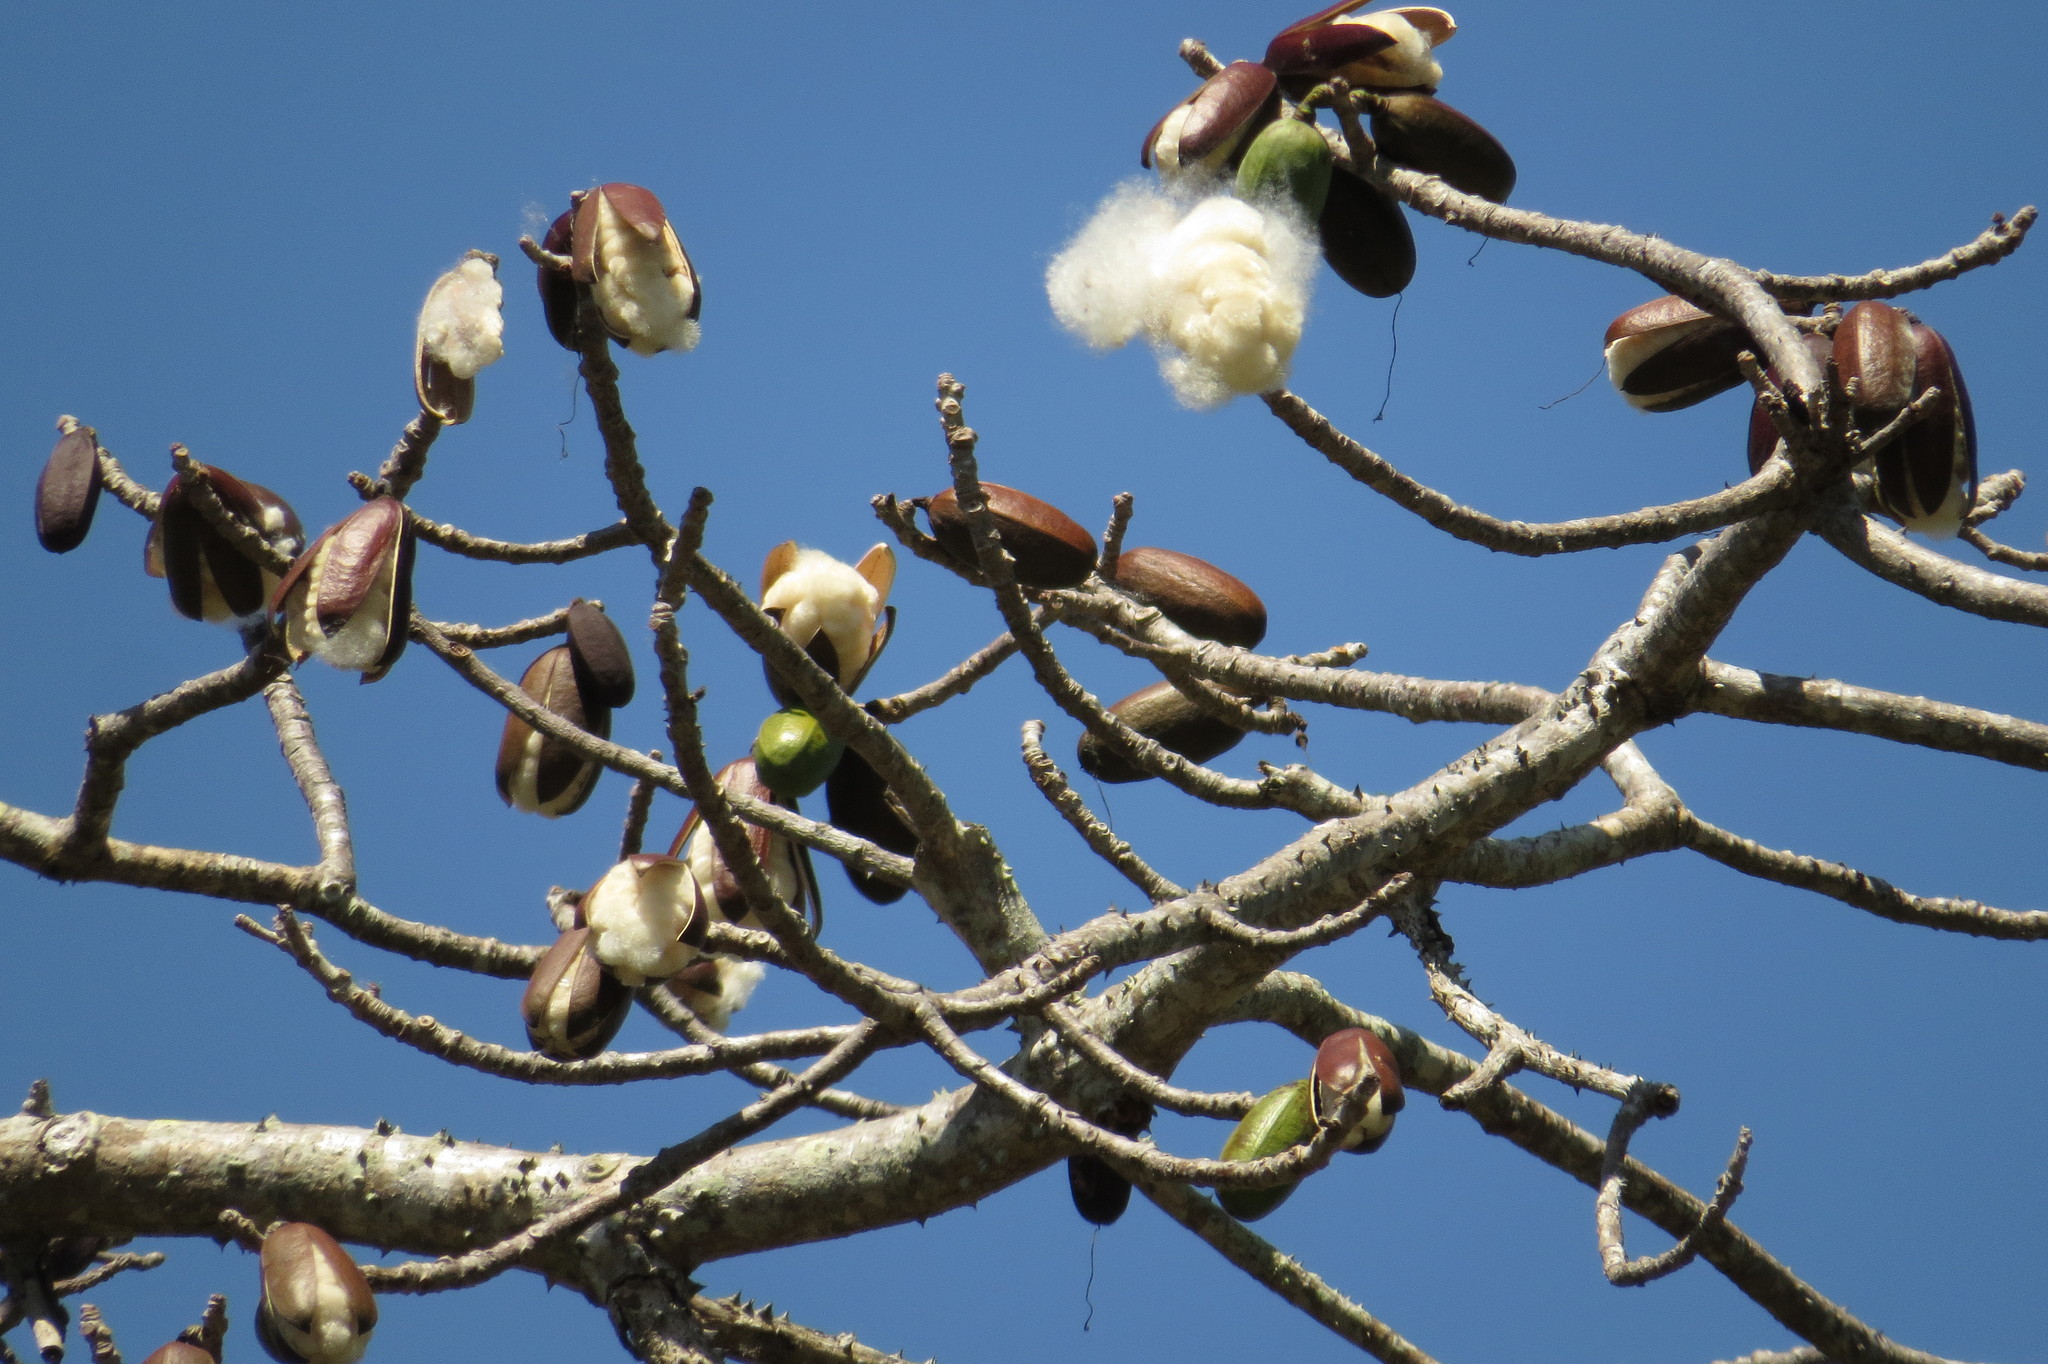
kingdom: Plantae
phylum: Tracheophyta
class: Magnoliopsida
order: Malvales
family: Malvaceae
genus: Bombax
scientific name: Bombax ceiba
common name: Northern-cottonwood
